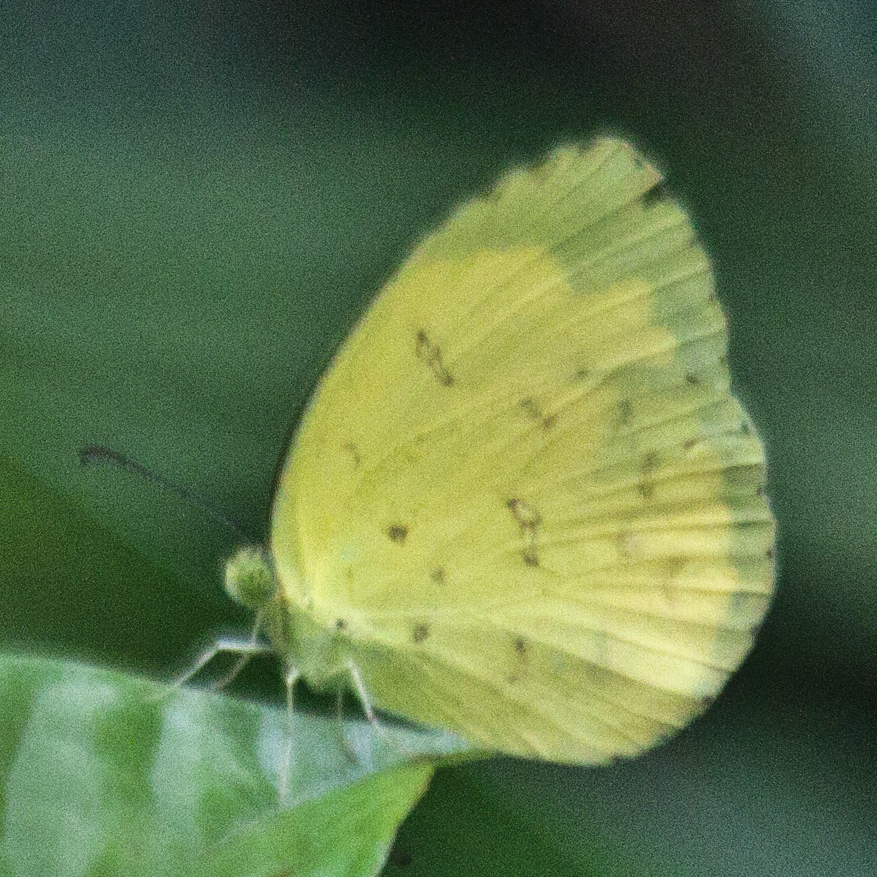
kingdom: Animalia
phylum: Arthropoda
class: Insecta
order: Lepidoptera
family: Pieridae
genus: Eurema
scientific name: Eurema hecabe
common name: Pale grass yellow
